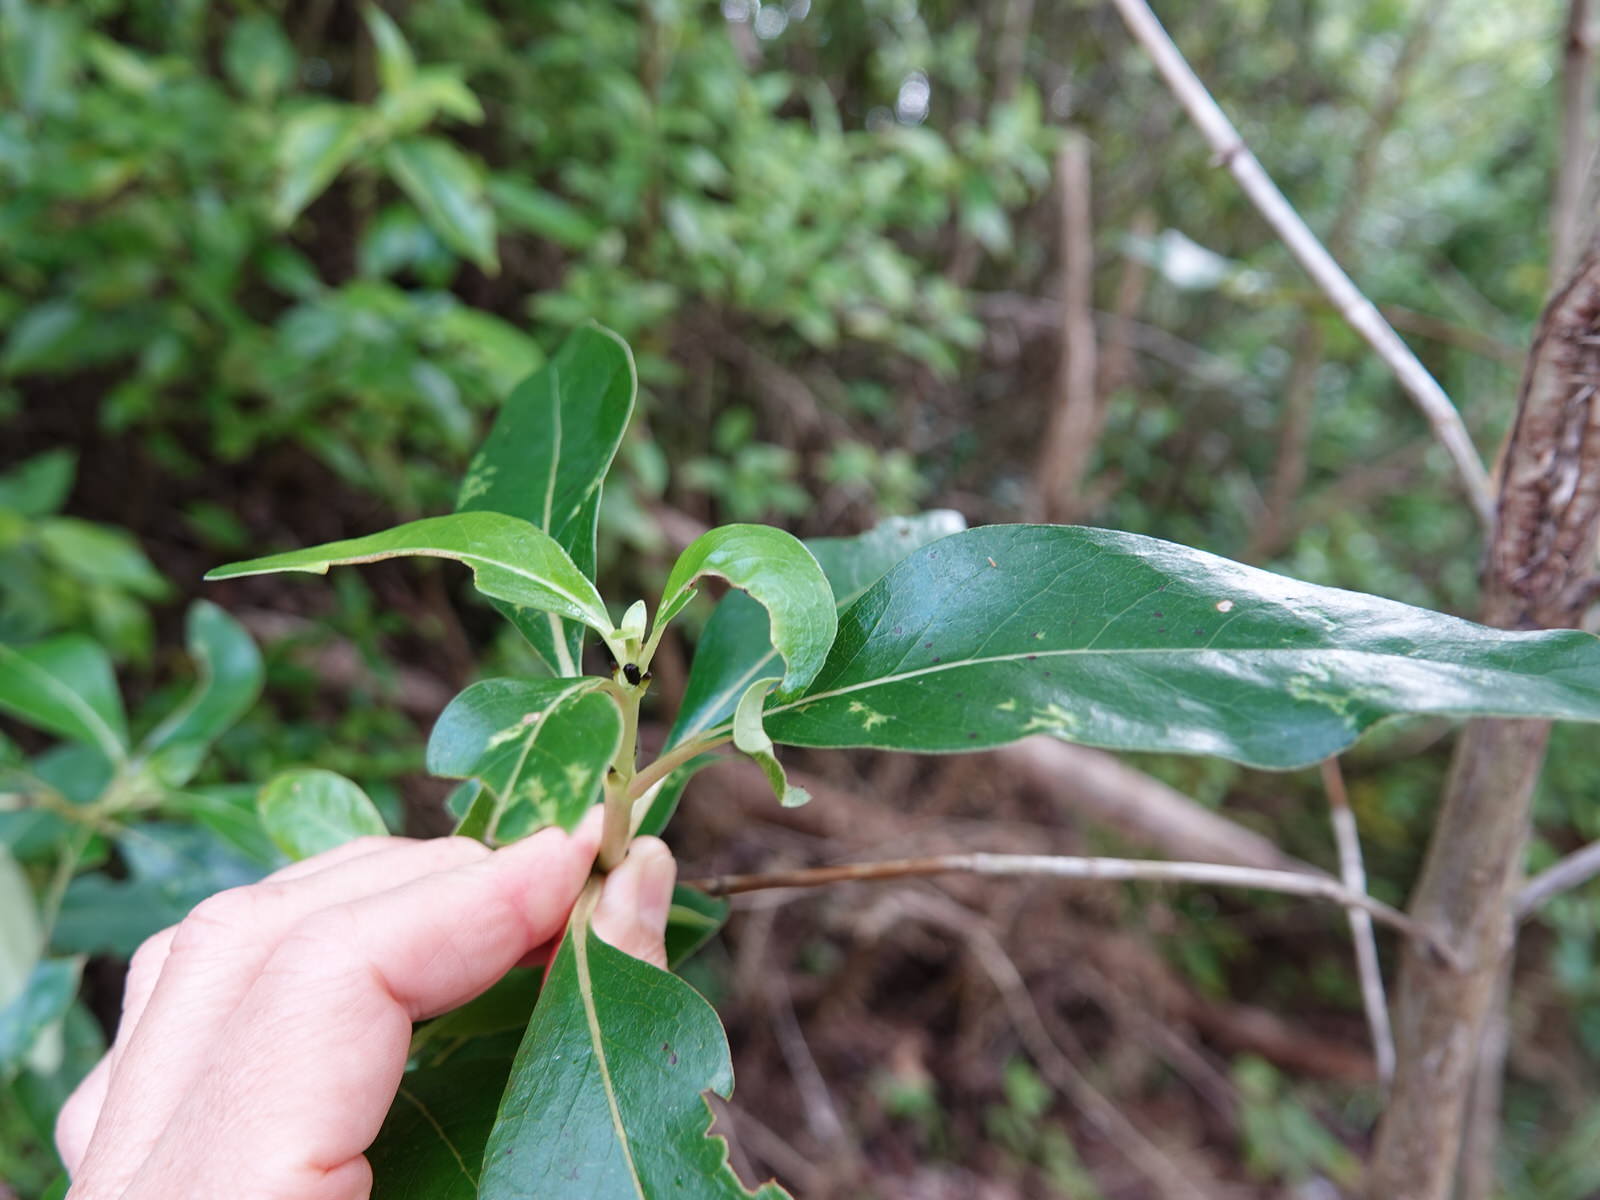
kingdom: Animalia
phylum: Arthropoda
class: Insecta
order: Coleoptera
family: Chrysomelidae
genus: Pleuraltica
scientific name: Pleuraltica cyanea
